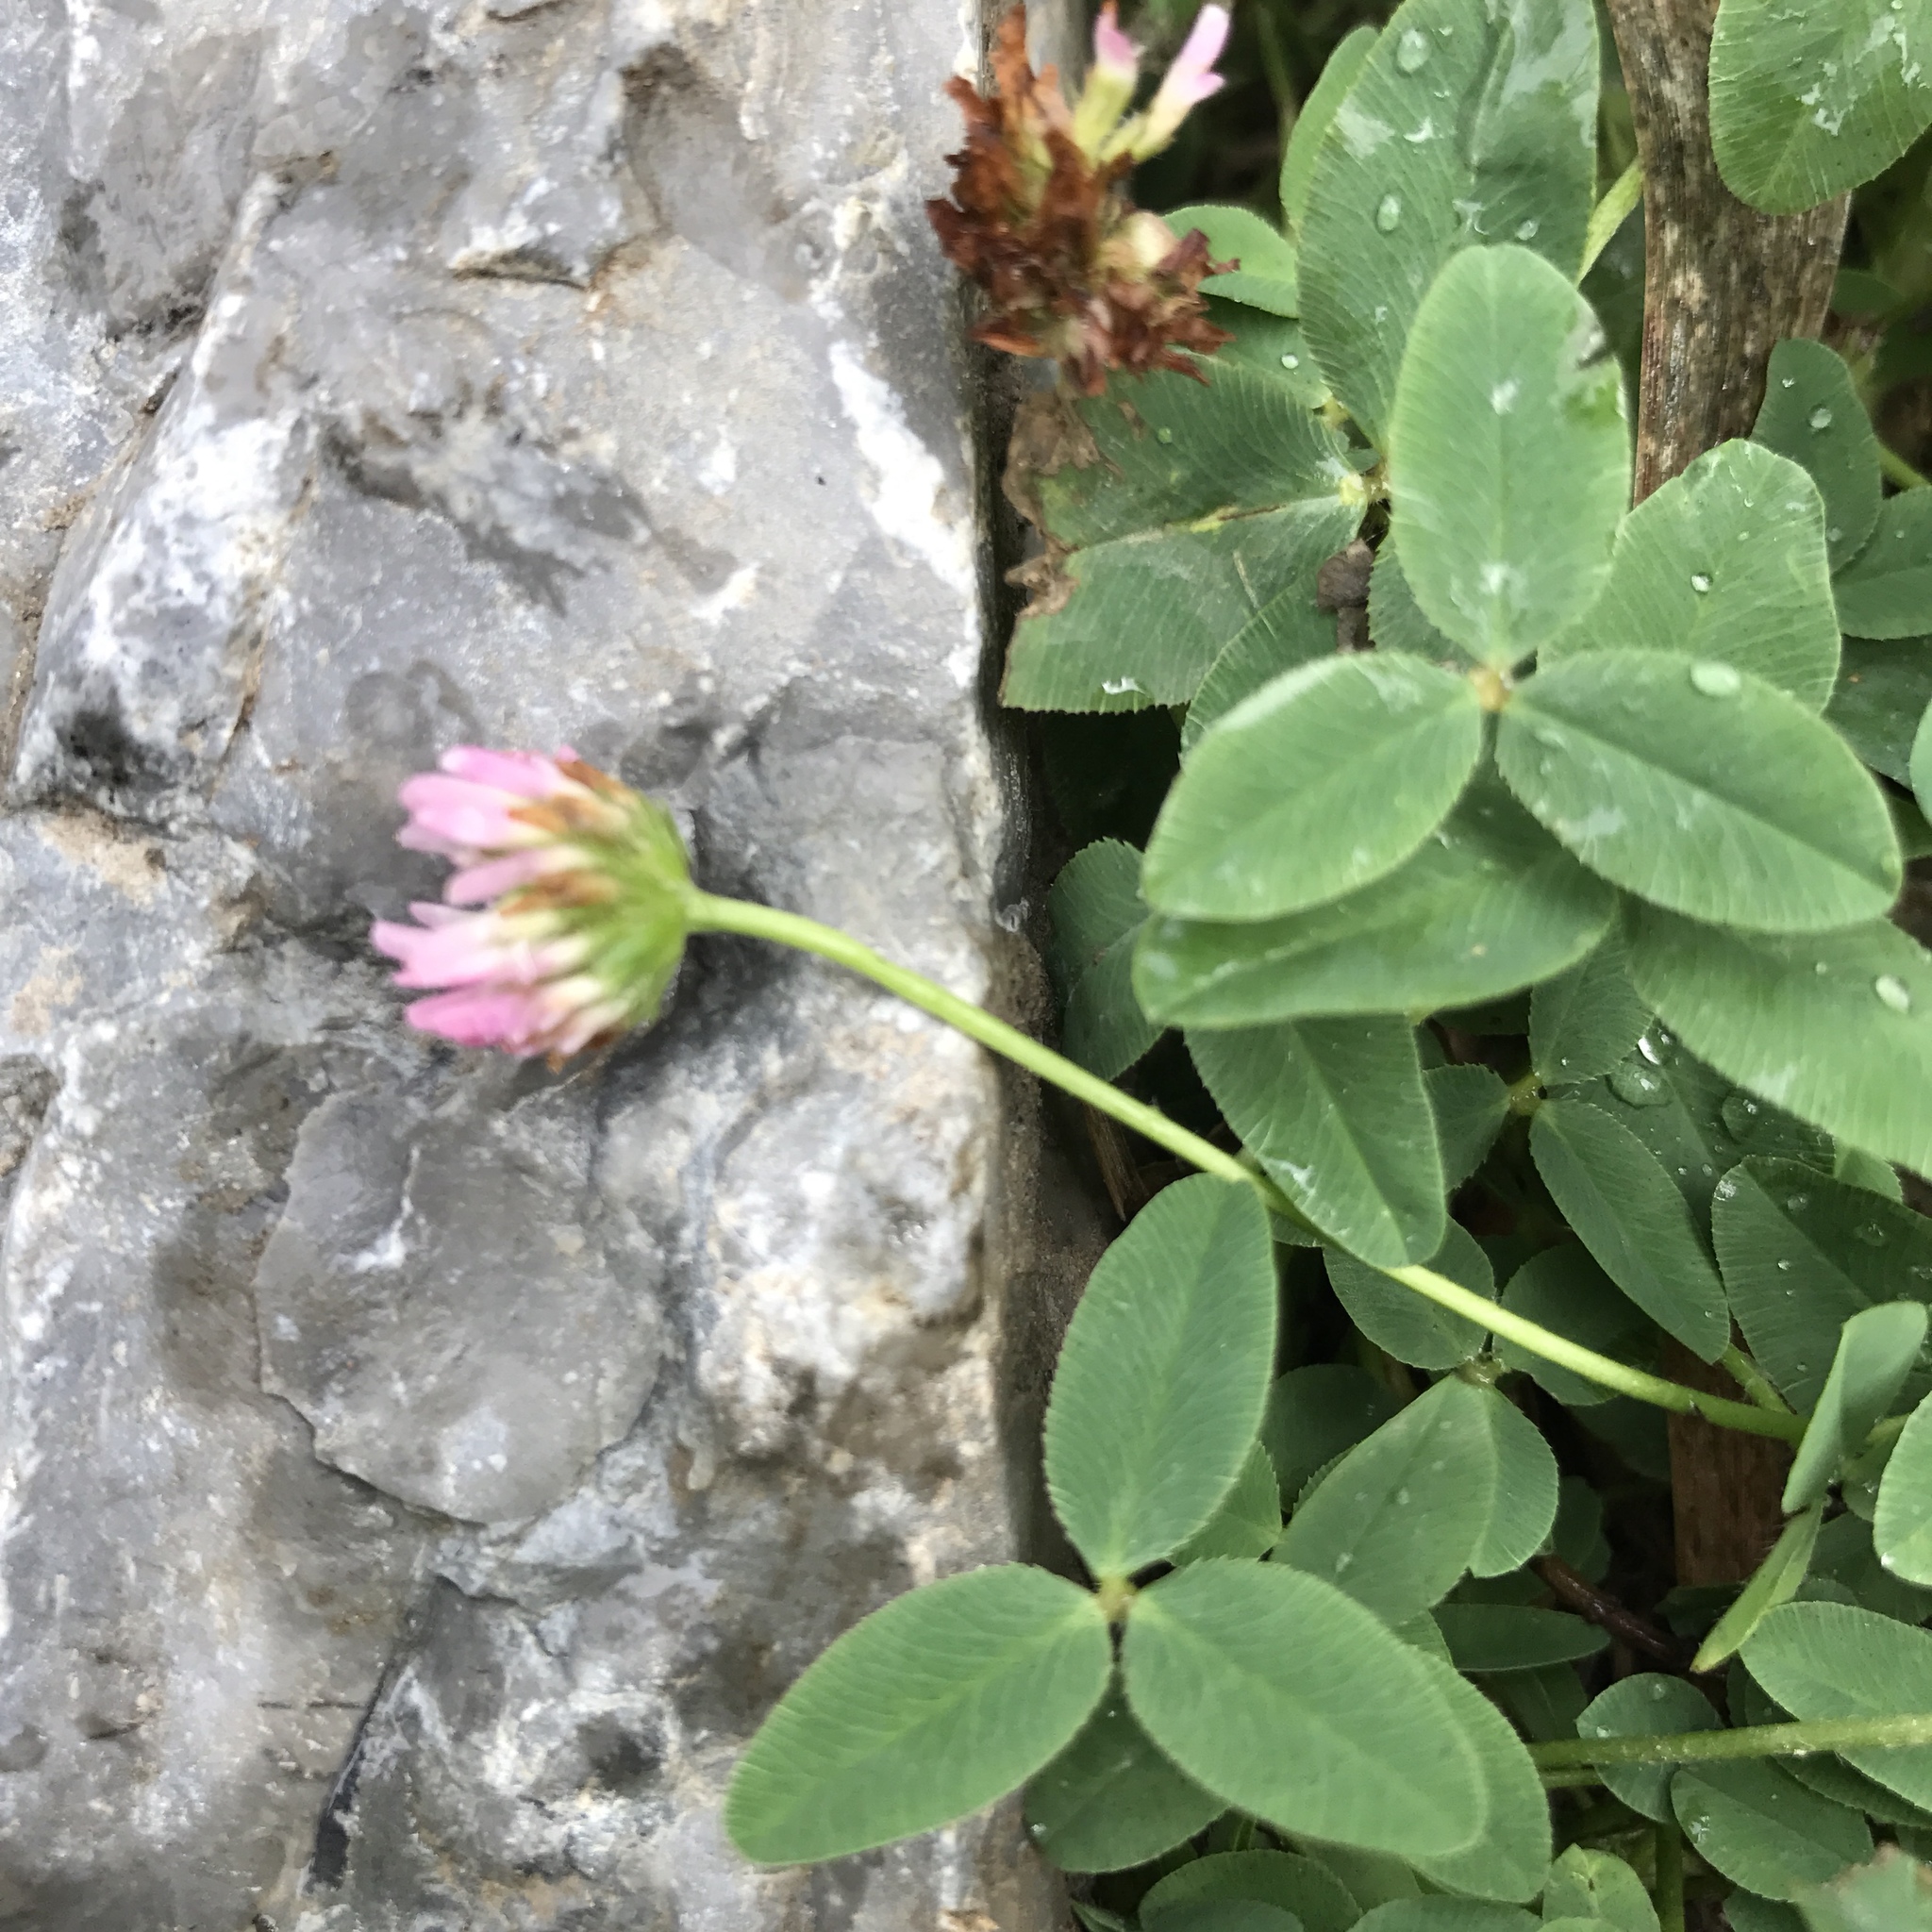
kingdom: Plantae
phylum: Tracheophyta
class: Magnoliopsida
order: Fabales
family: Fabaceae
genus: Trifolium
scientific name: Trifolium fragiferum
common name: Strawberry clover
